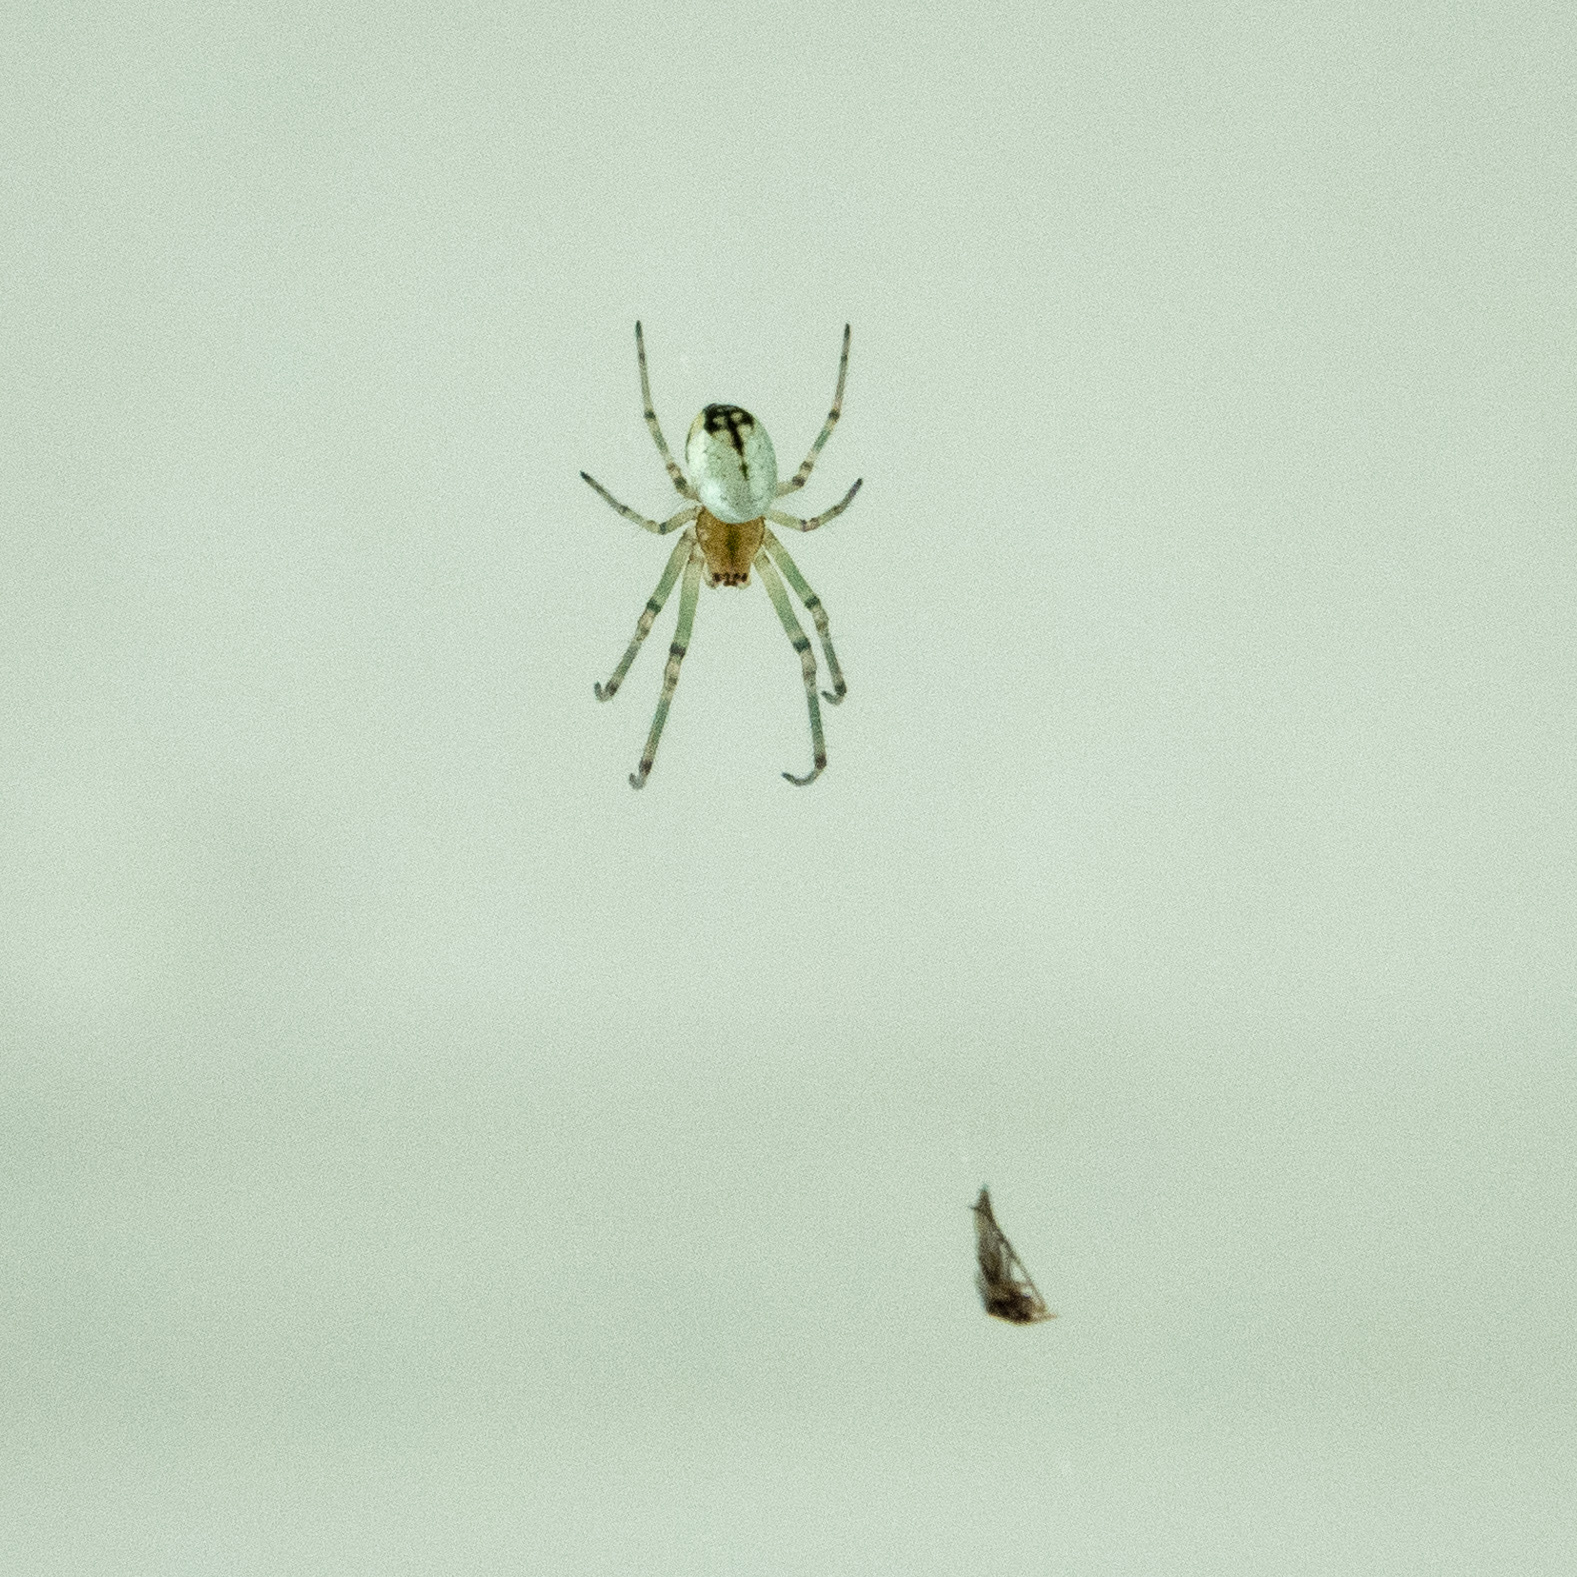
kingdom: Animalia
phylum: Arthropoda
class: Arachnida
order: Araneae
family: Tetragnathidae
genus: Leucauge
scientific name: Leucauge venusta
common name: Longjawed orb weavers
